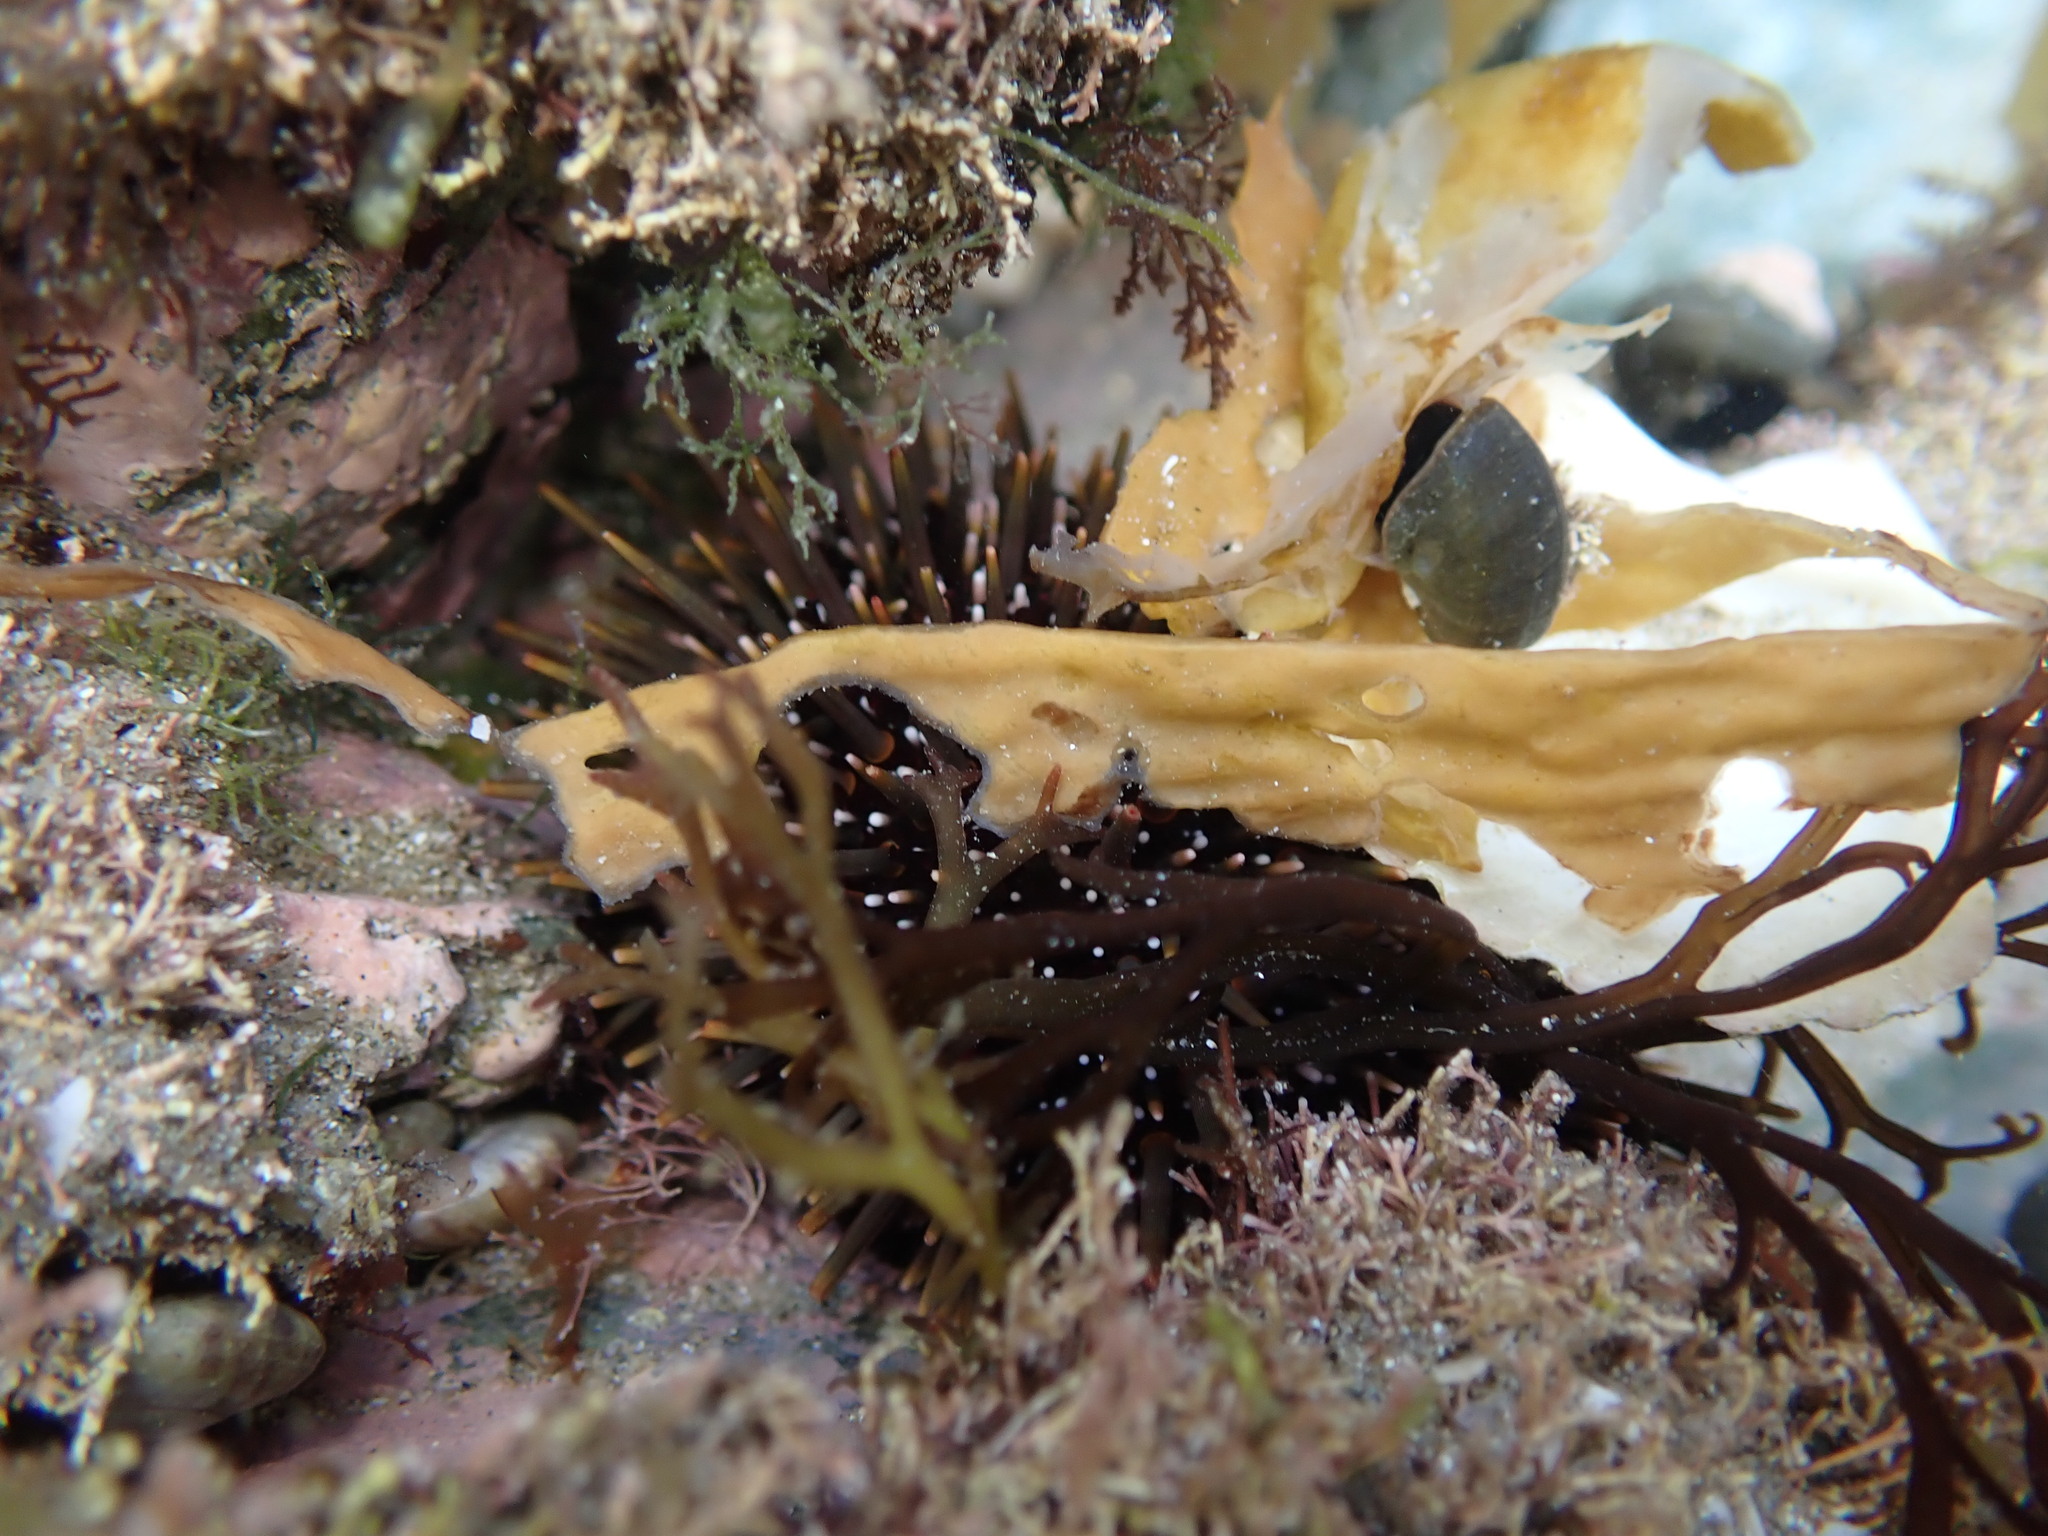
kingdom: Animalia
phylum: Echinodermata
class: Echinoidea
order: Camarodonta
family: Echinometridae
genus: Evechinus
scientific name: Evechinus chloroticus
